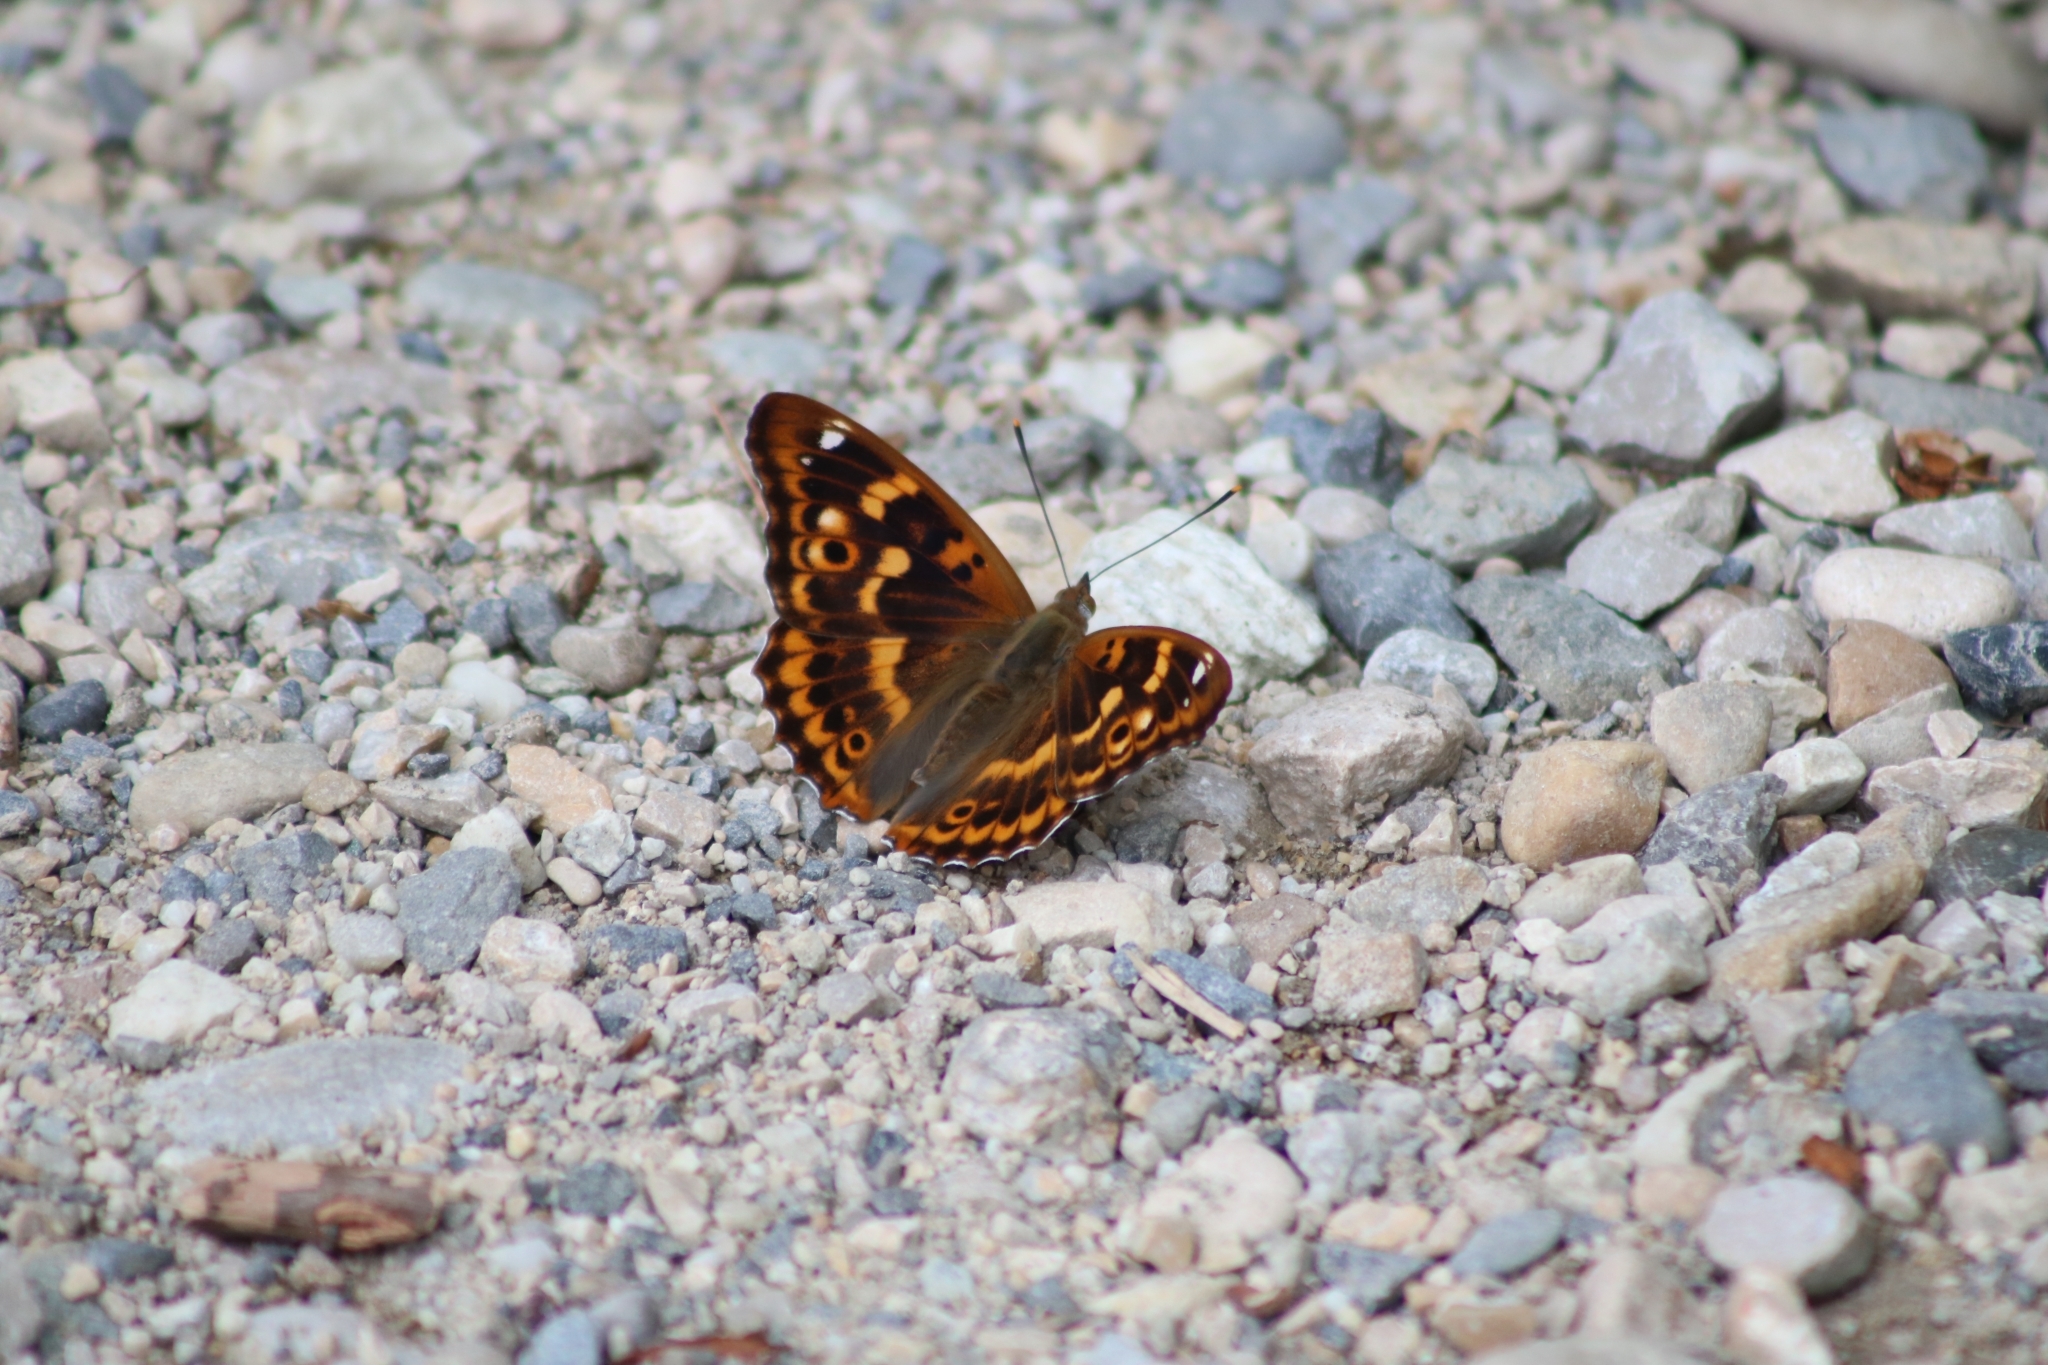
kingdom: Animalia
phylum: Arthropoda
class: Insecta
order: Lepidoptera
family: Nymphalidae
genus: Apatura
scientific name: Apatura ilia
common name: Lesser purple emperor
